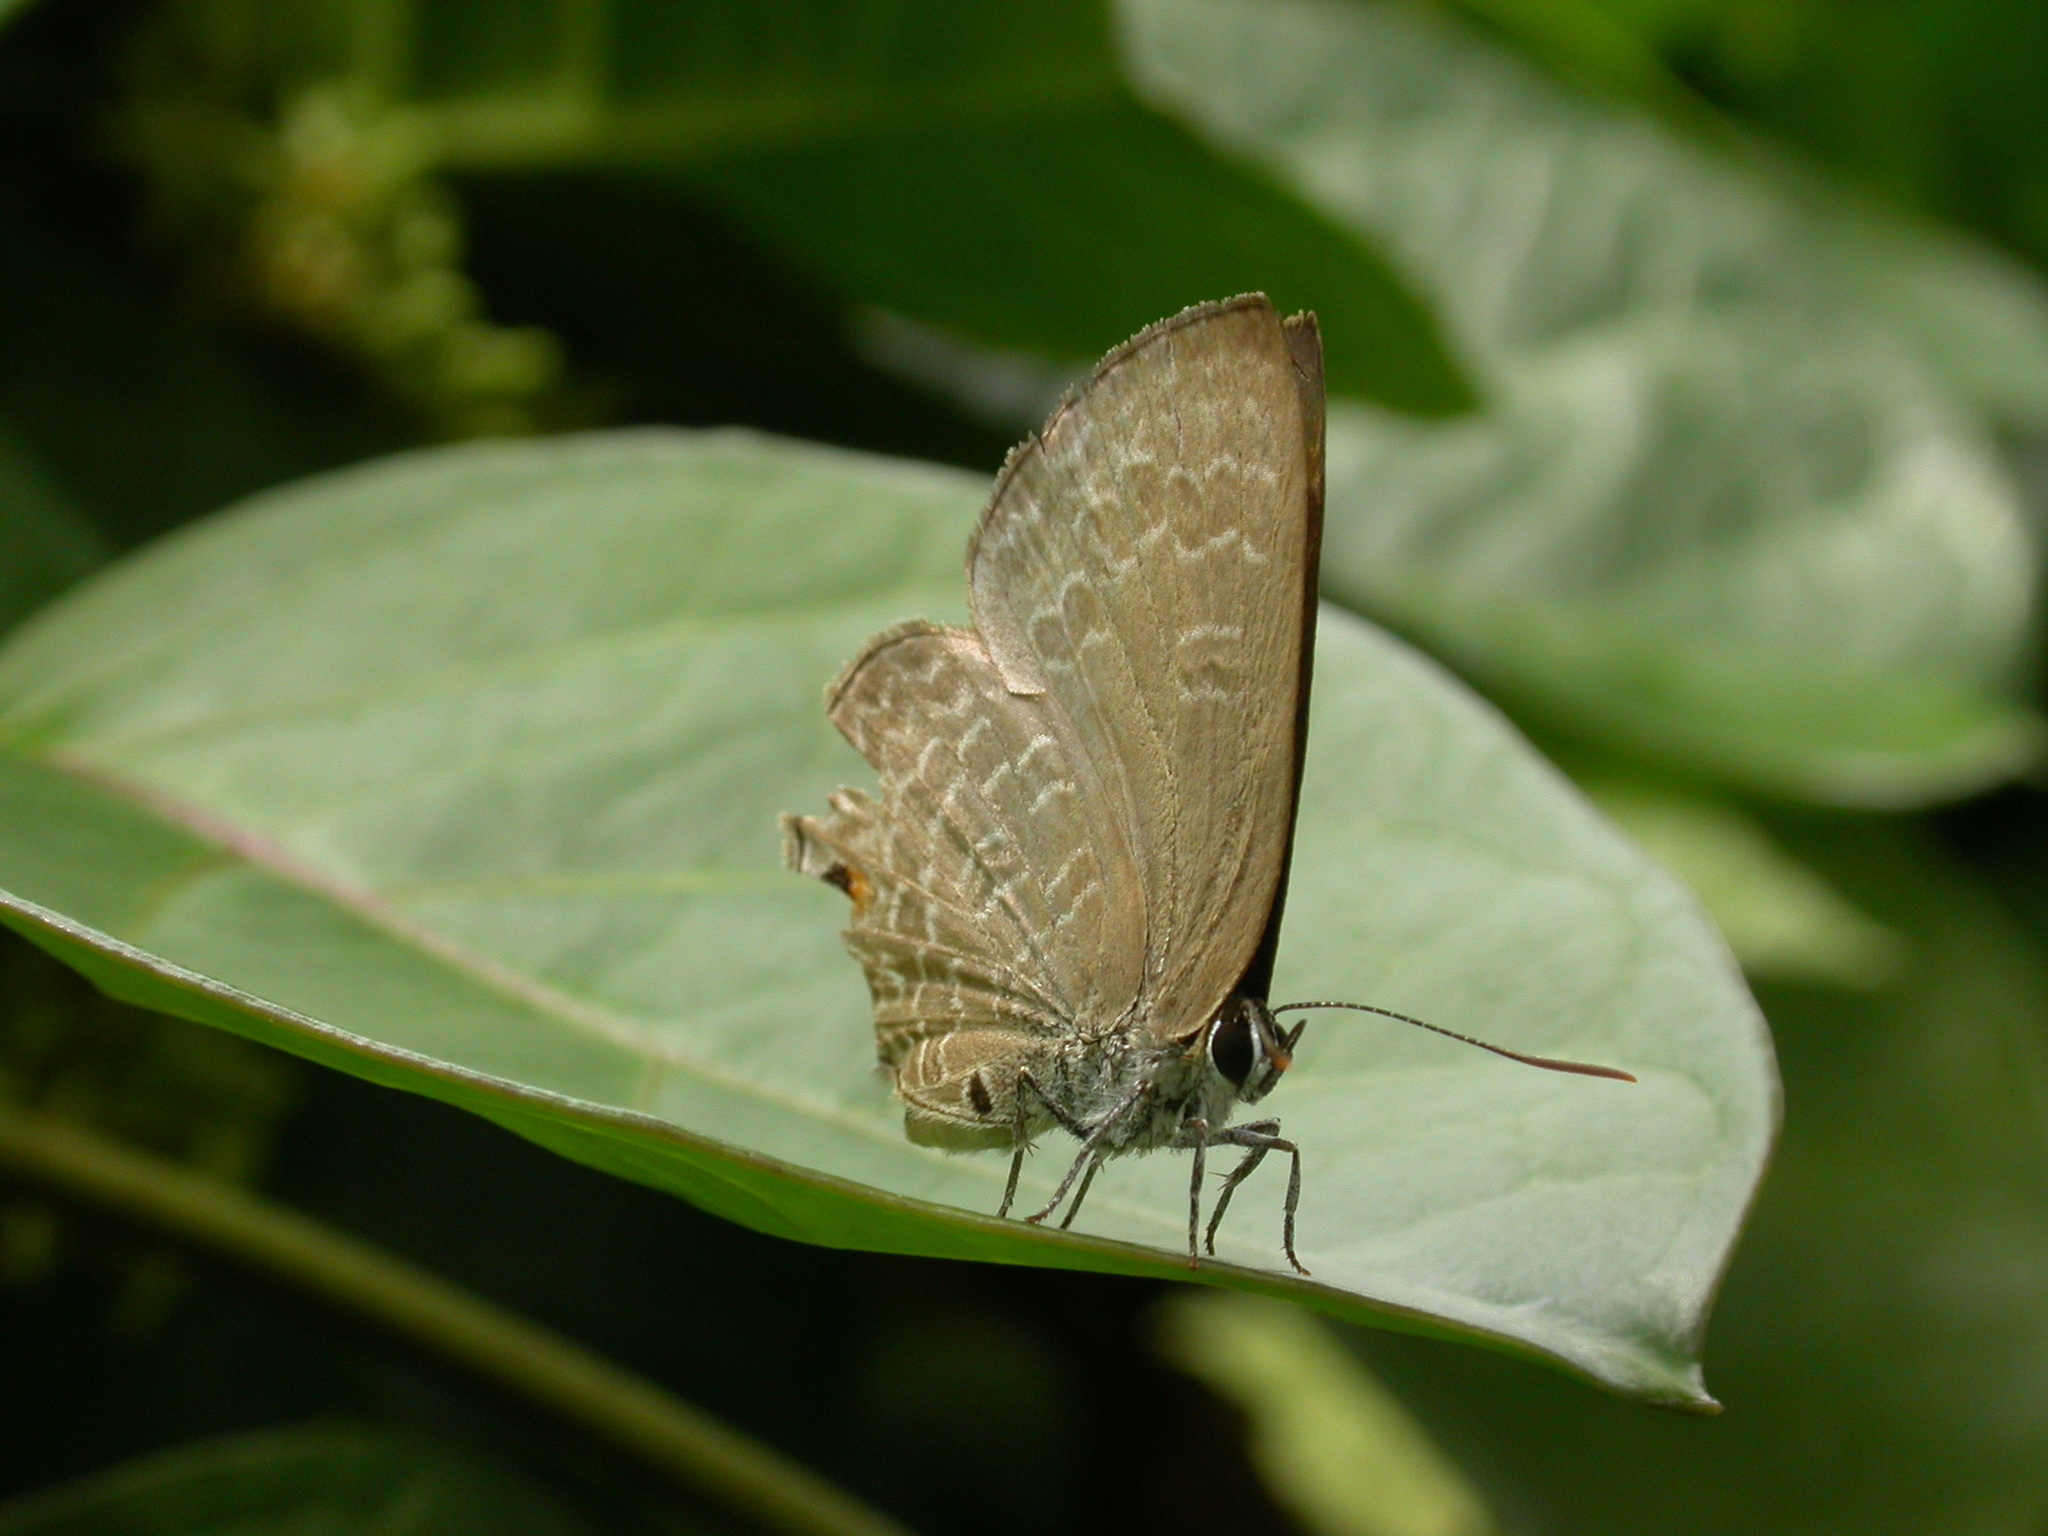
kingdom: Animalia
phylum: Arthropoda
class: Insecta
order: Lepidoptera
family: Lycaenidae
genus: Anthene
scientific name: Anthene emolus
